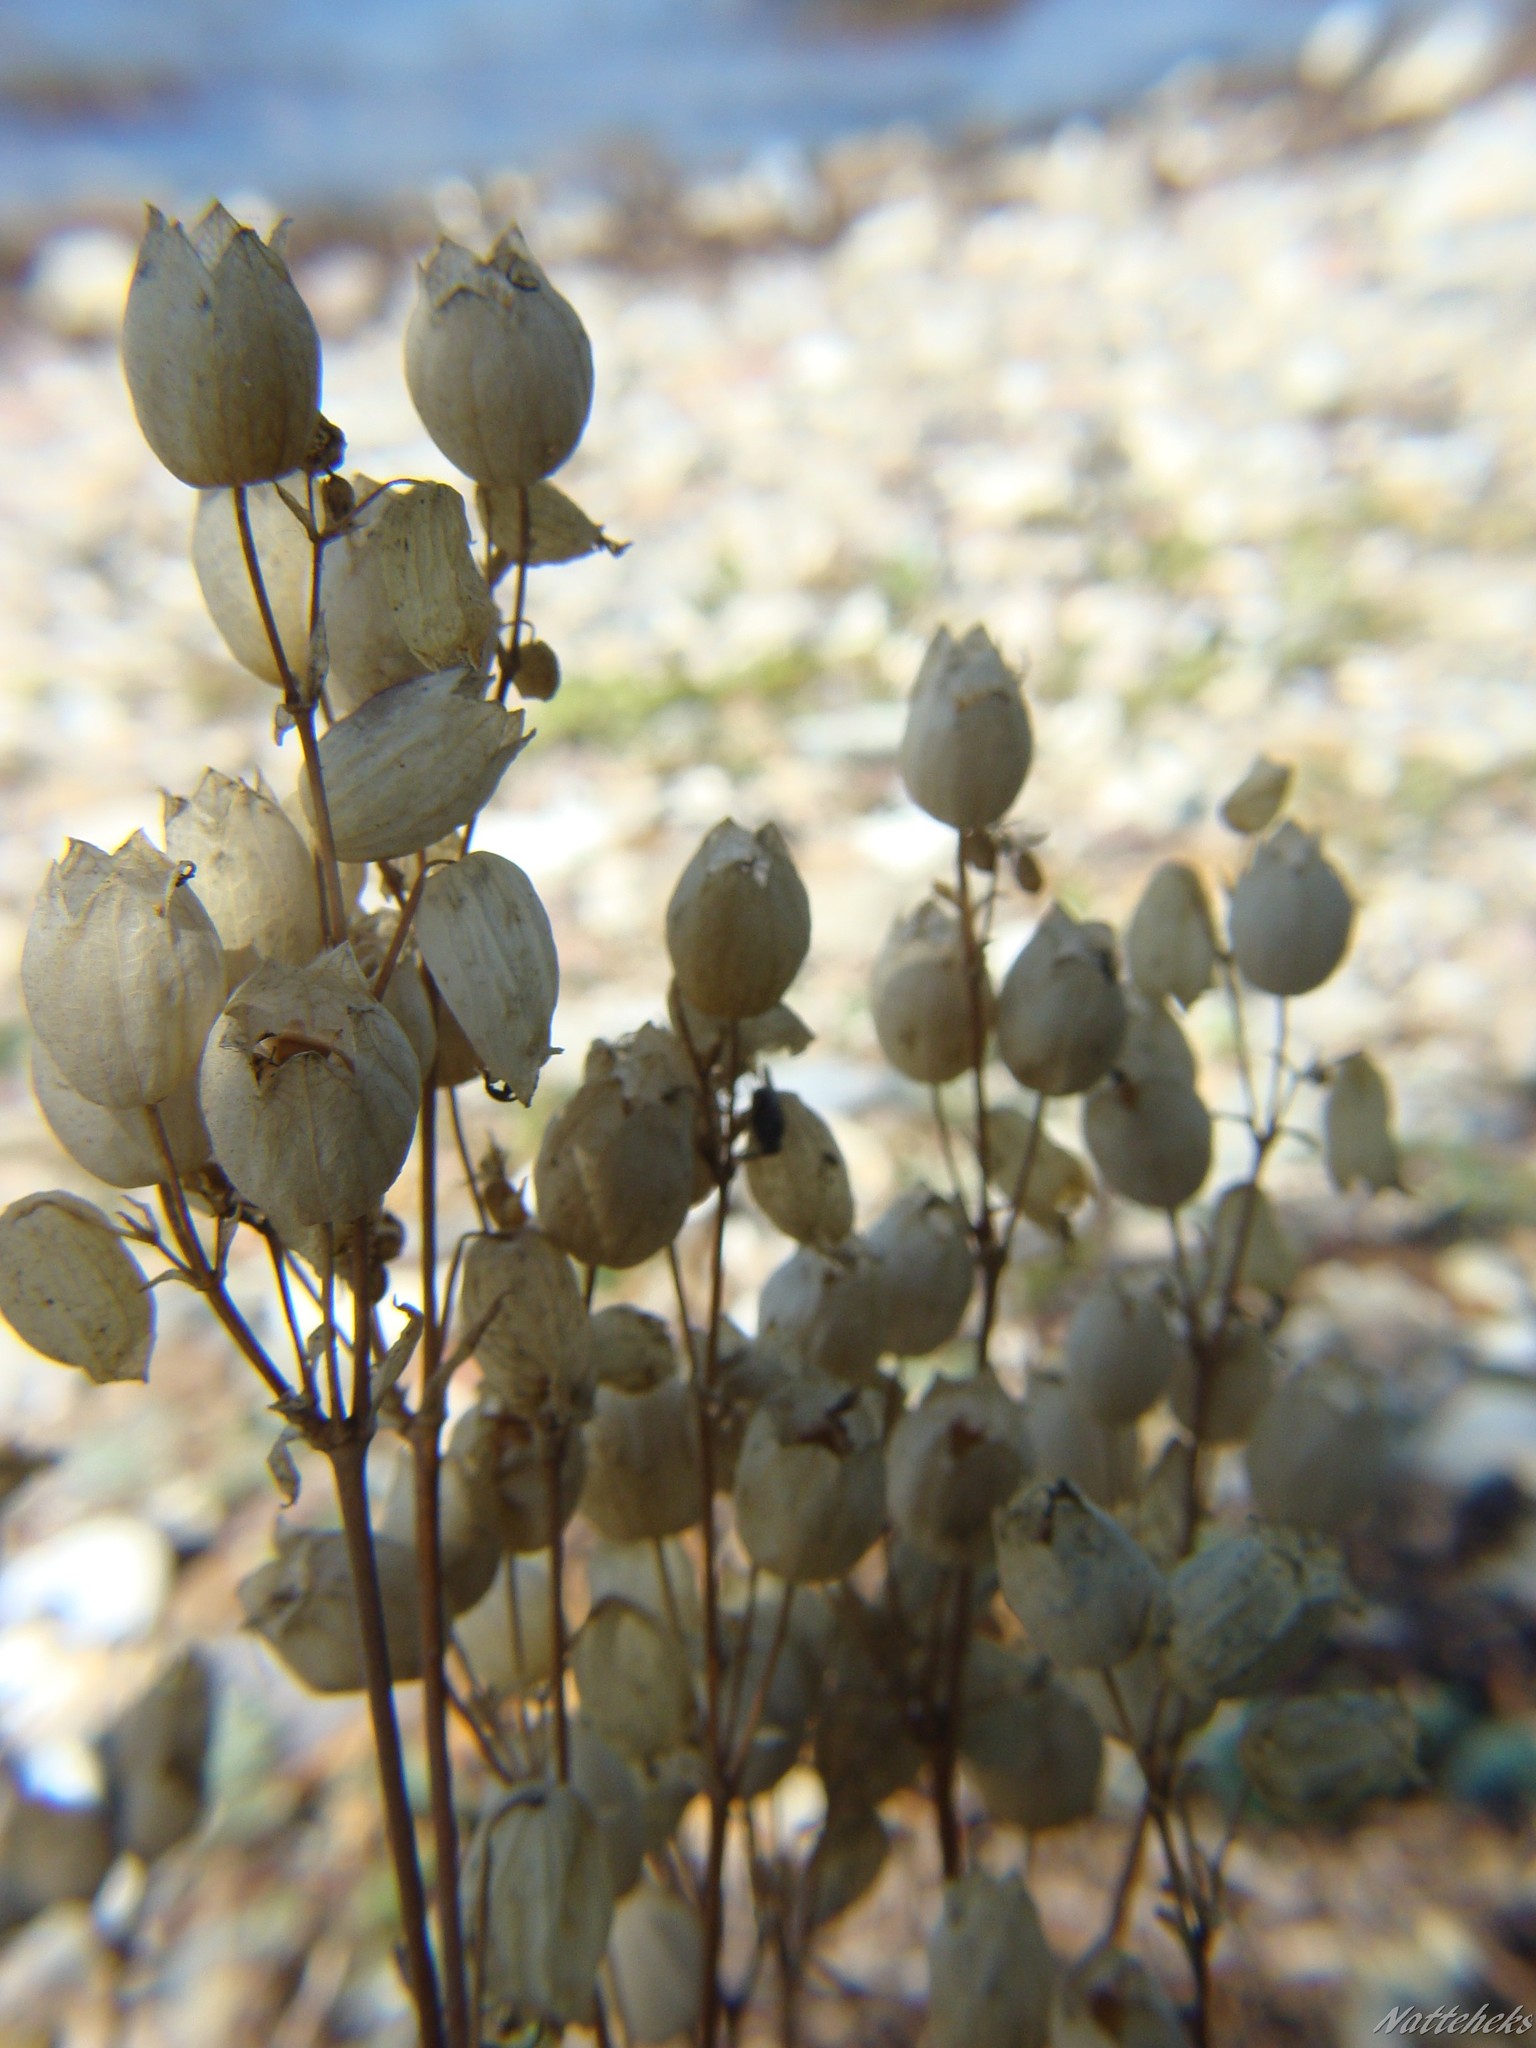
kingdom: Plantae
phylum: Tracheophyta
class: Magnoliopsida
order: Caryophyllales
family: Caryophyllaceae
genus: Silene
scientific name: Silene vulgaris
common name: Bladder campion
